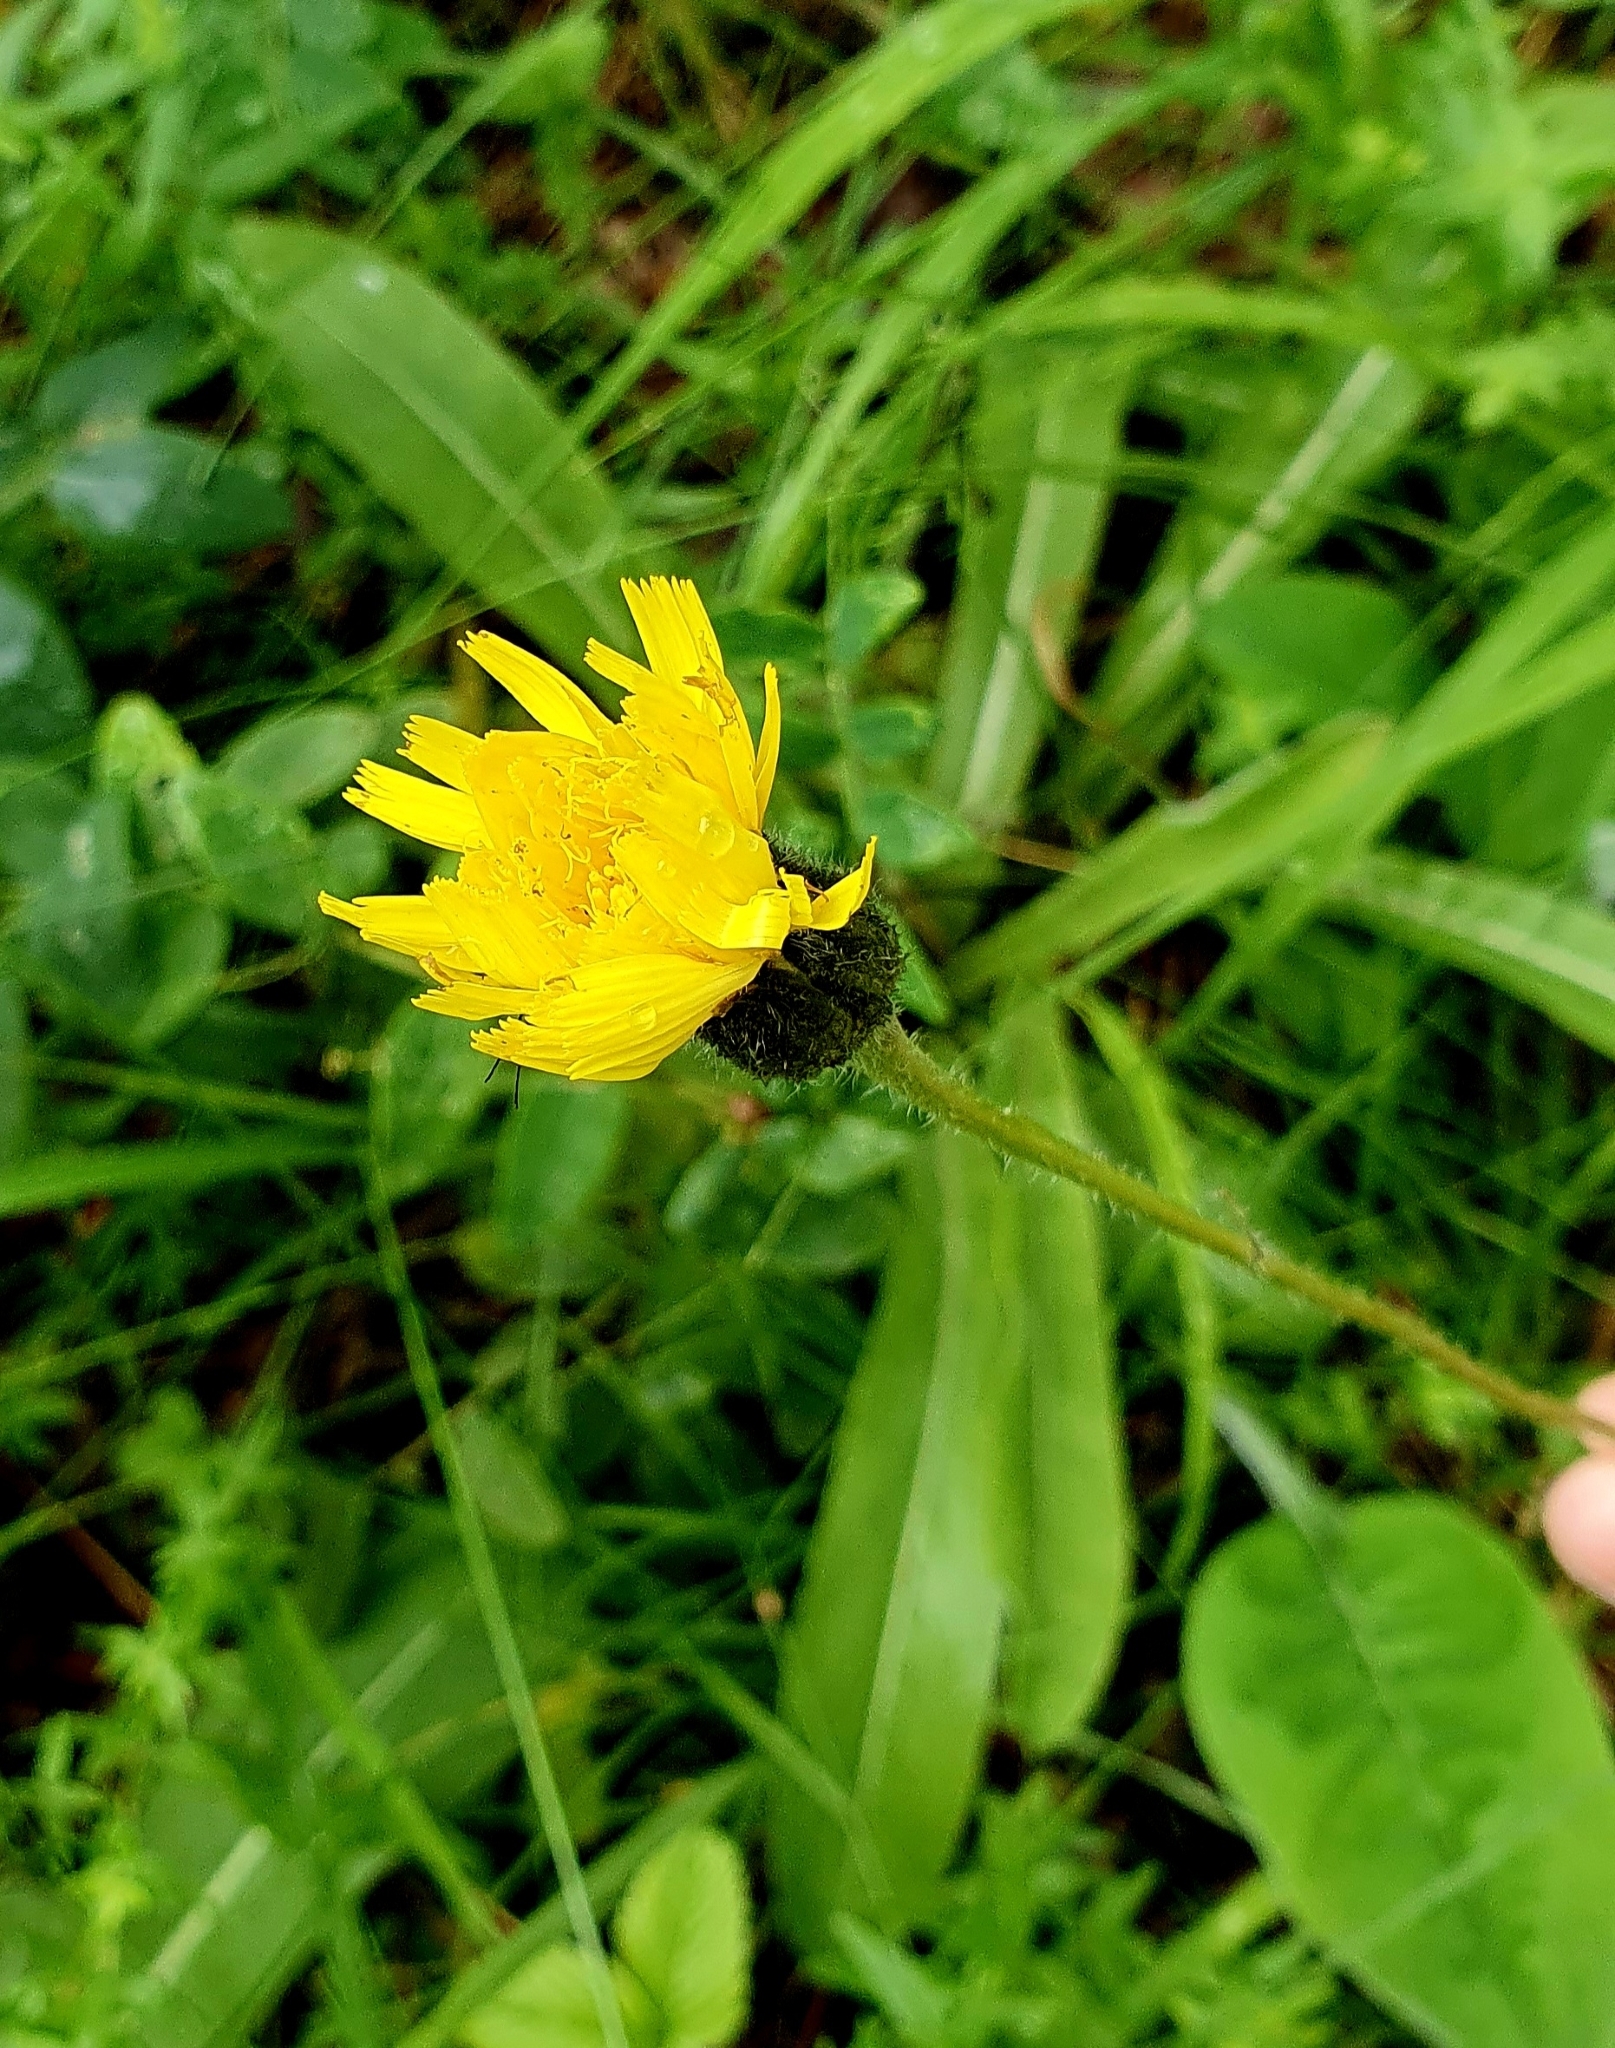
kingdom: Plantae
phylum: Tracheophyta
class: Magnoliopsida
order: Asterales
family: Asteraceae
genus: Trommsdorffia
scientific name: Trommsdorffia maculata
